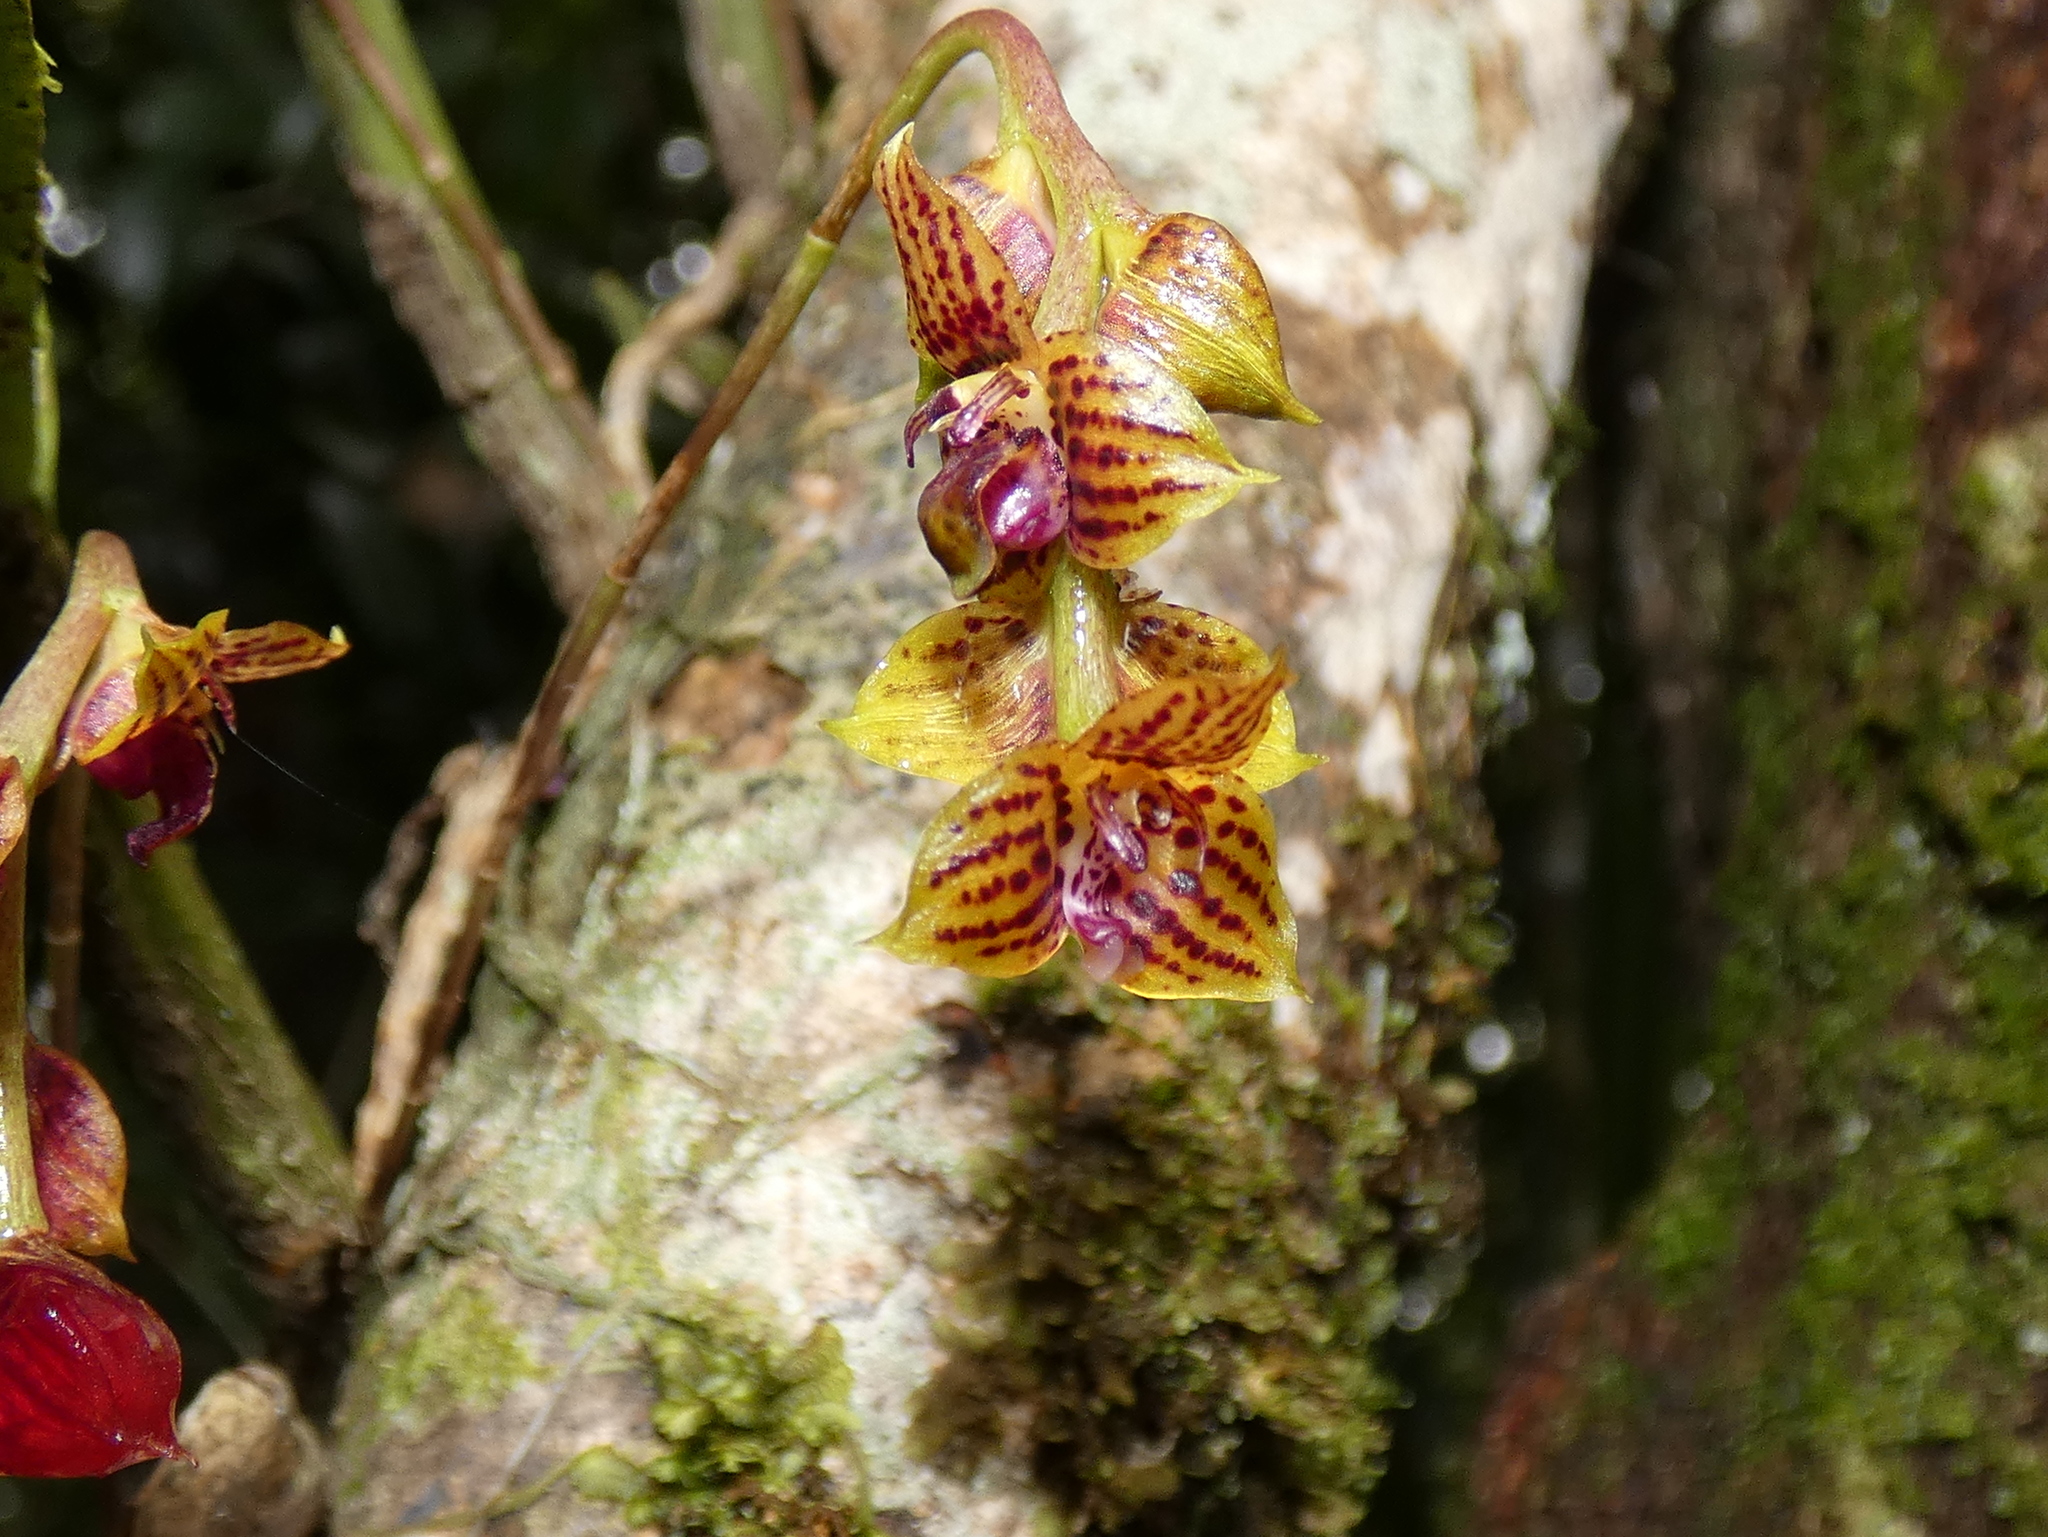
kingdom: Plantae
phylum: Tracheophyta
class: Liliopsida
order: Asparagales
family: Orchidaceae
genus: Bulbophyllum
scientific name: Bulbophyllum francoisii
